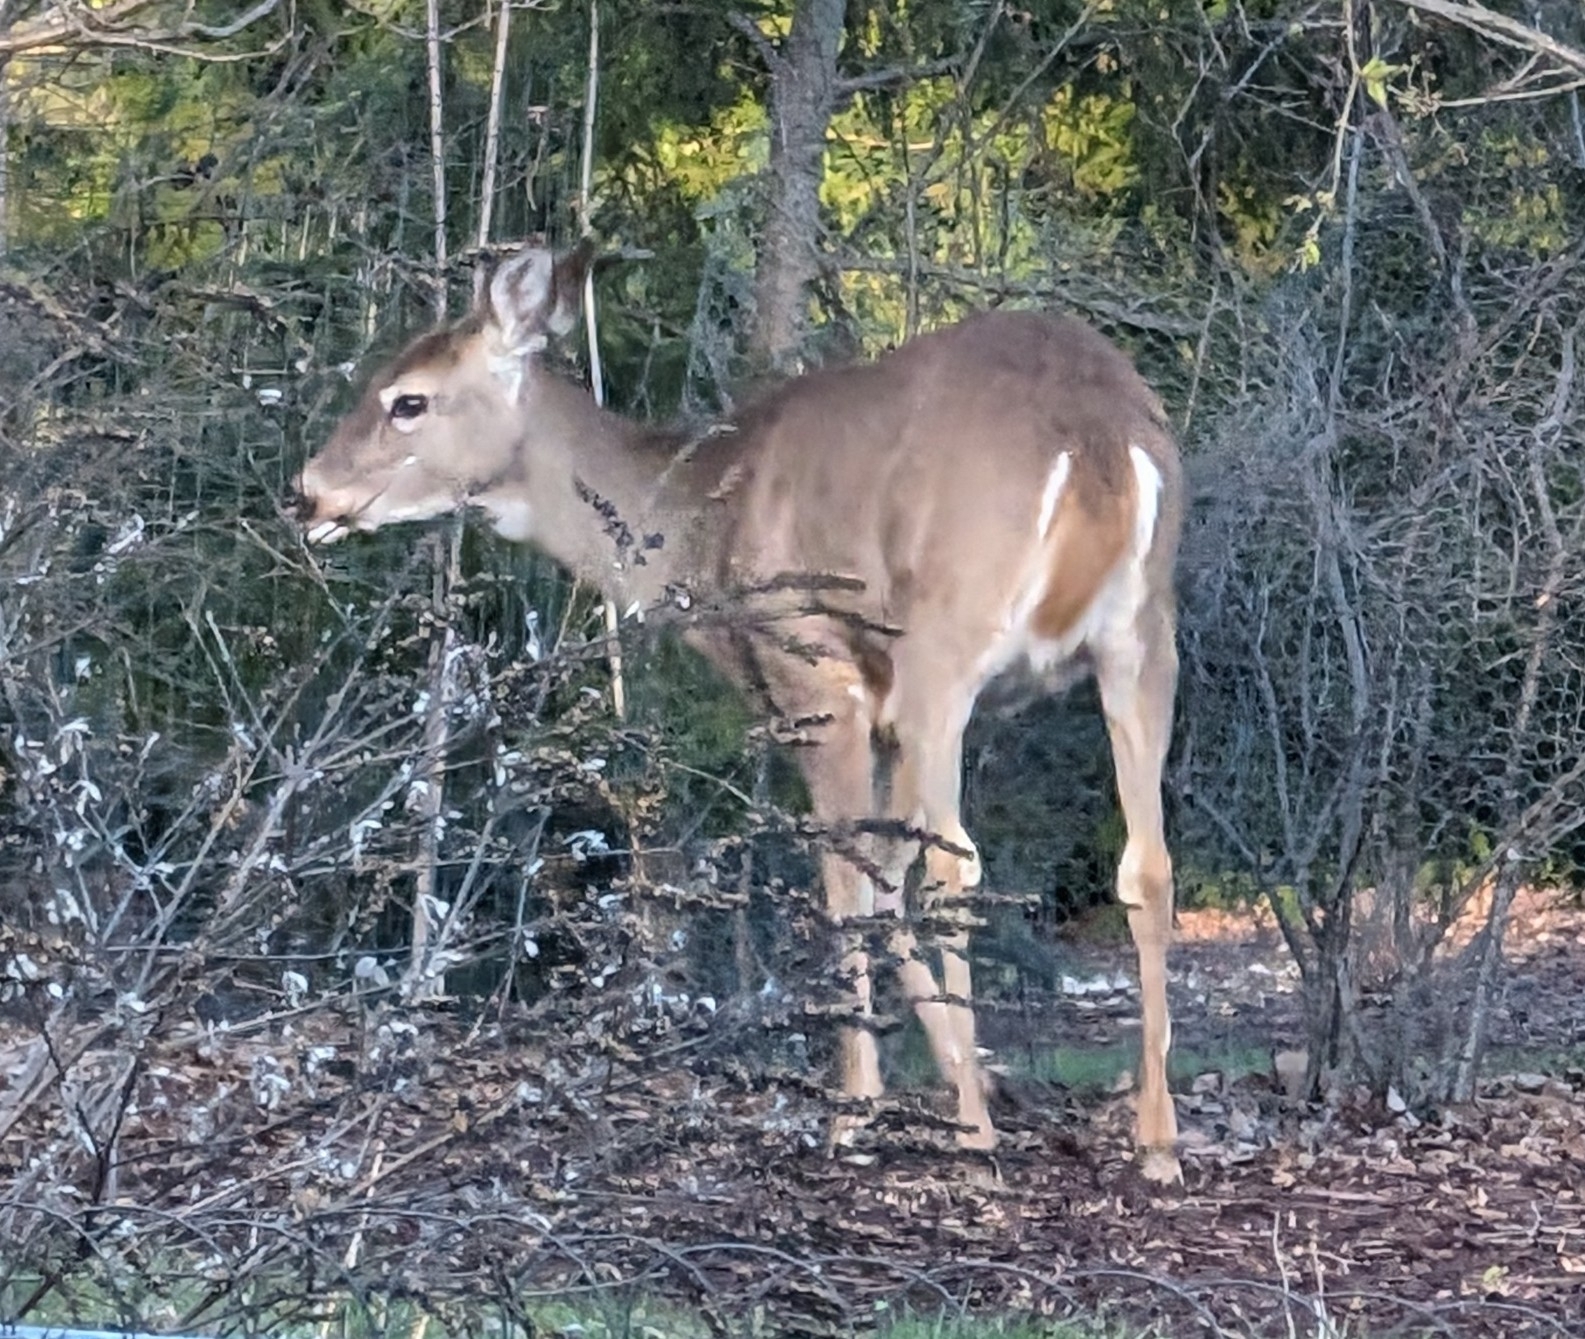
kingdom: Animalia
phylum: Chordata
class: Mammalia
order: Artiodactyla
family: Cervidae
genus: Odocoileus
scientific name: Odocoileus virginianus
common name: White-tailed deer
